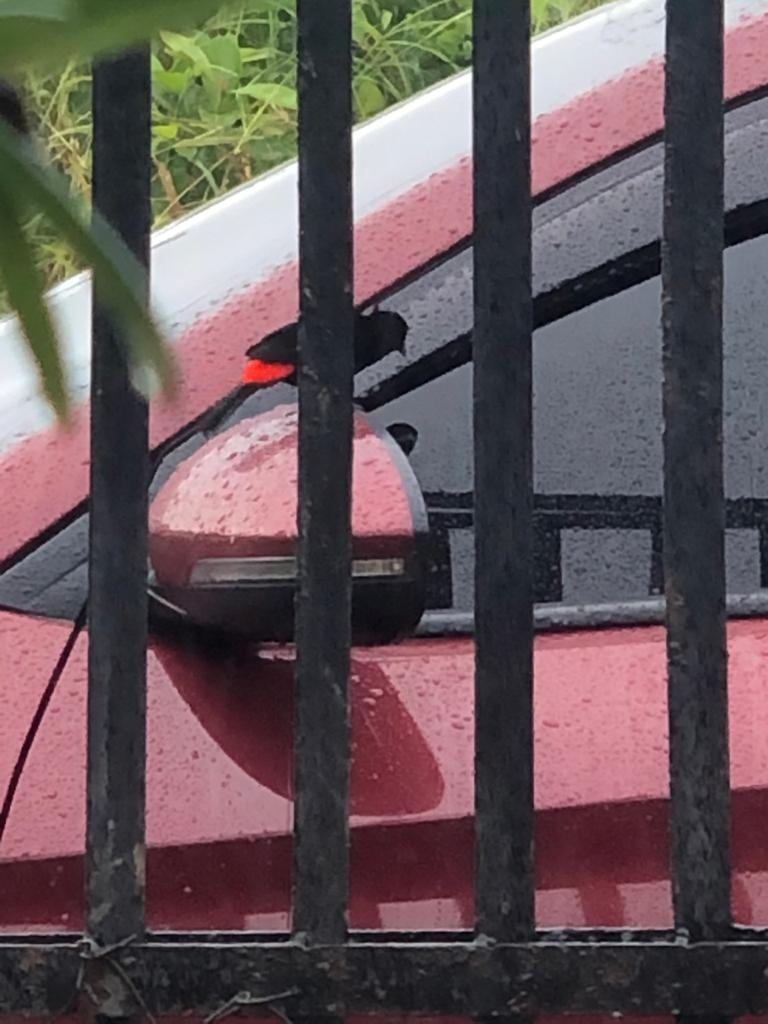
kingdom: Animalia
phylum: Chordata
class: Aves
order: Passeriformes
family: Thraupidae
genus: Ramphocelus
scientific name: Ramphocelus passerinii
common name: Passerini's tanager
